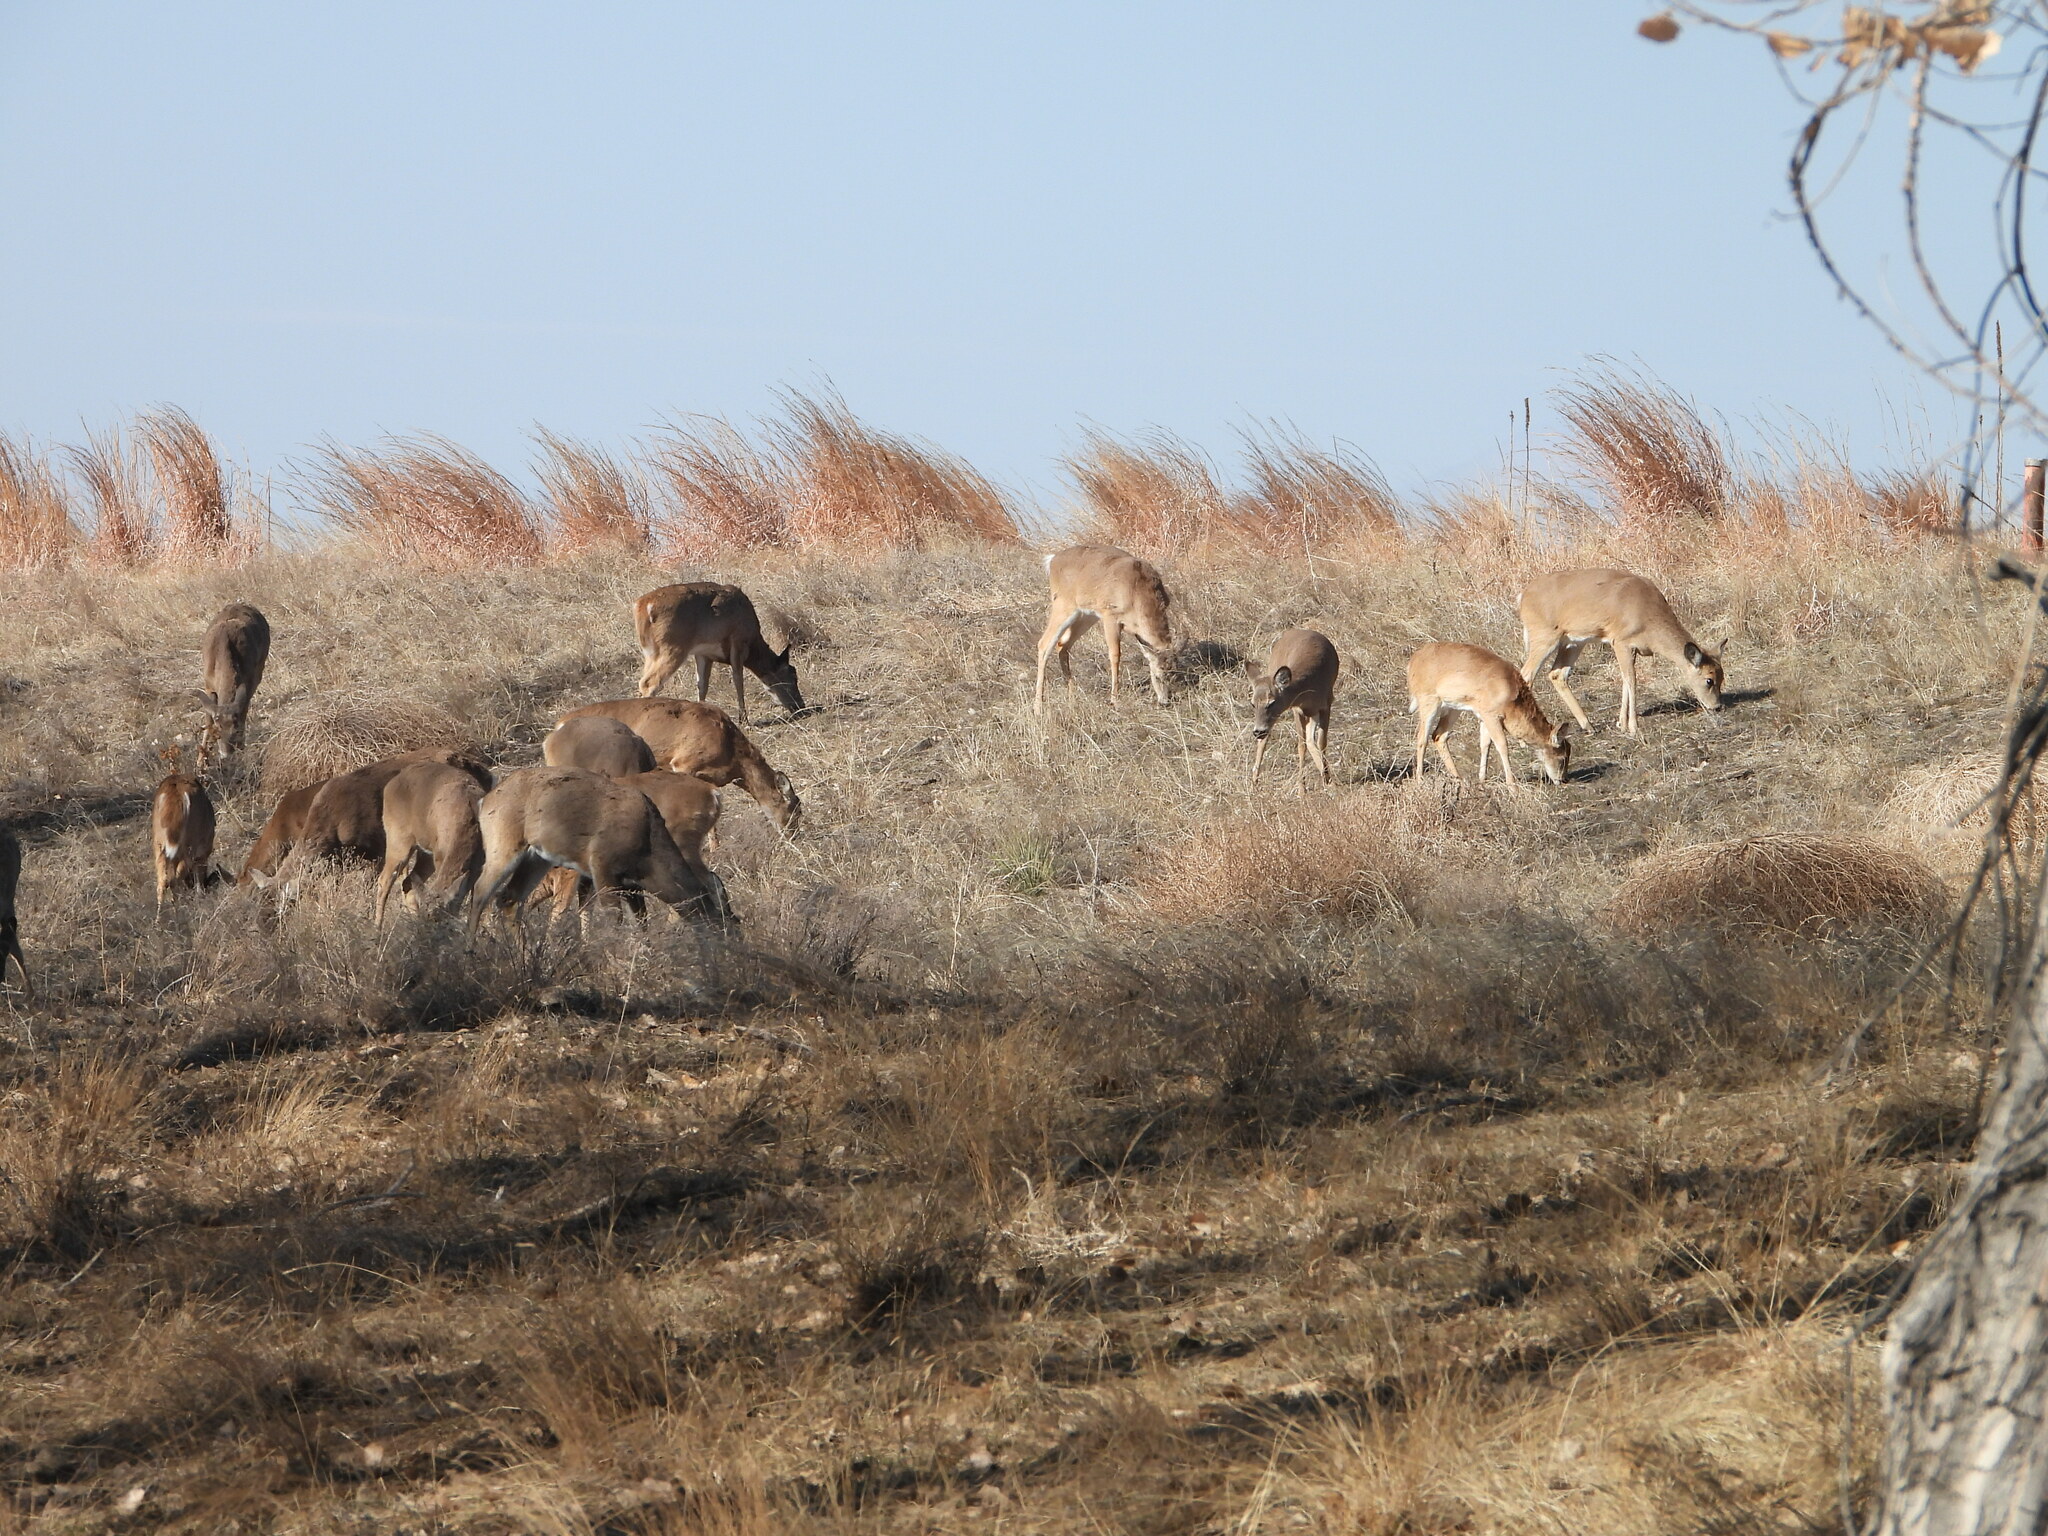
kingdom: Animalia
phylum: Chordata
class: Mammalia
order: Artiodactyla
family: Cervidae
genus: Odocoileus
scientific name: Odocoileus hemionus
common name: Mule deer
